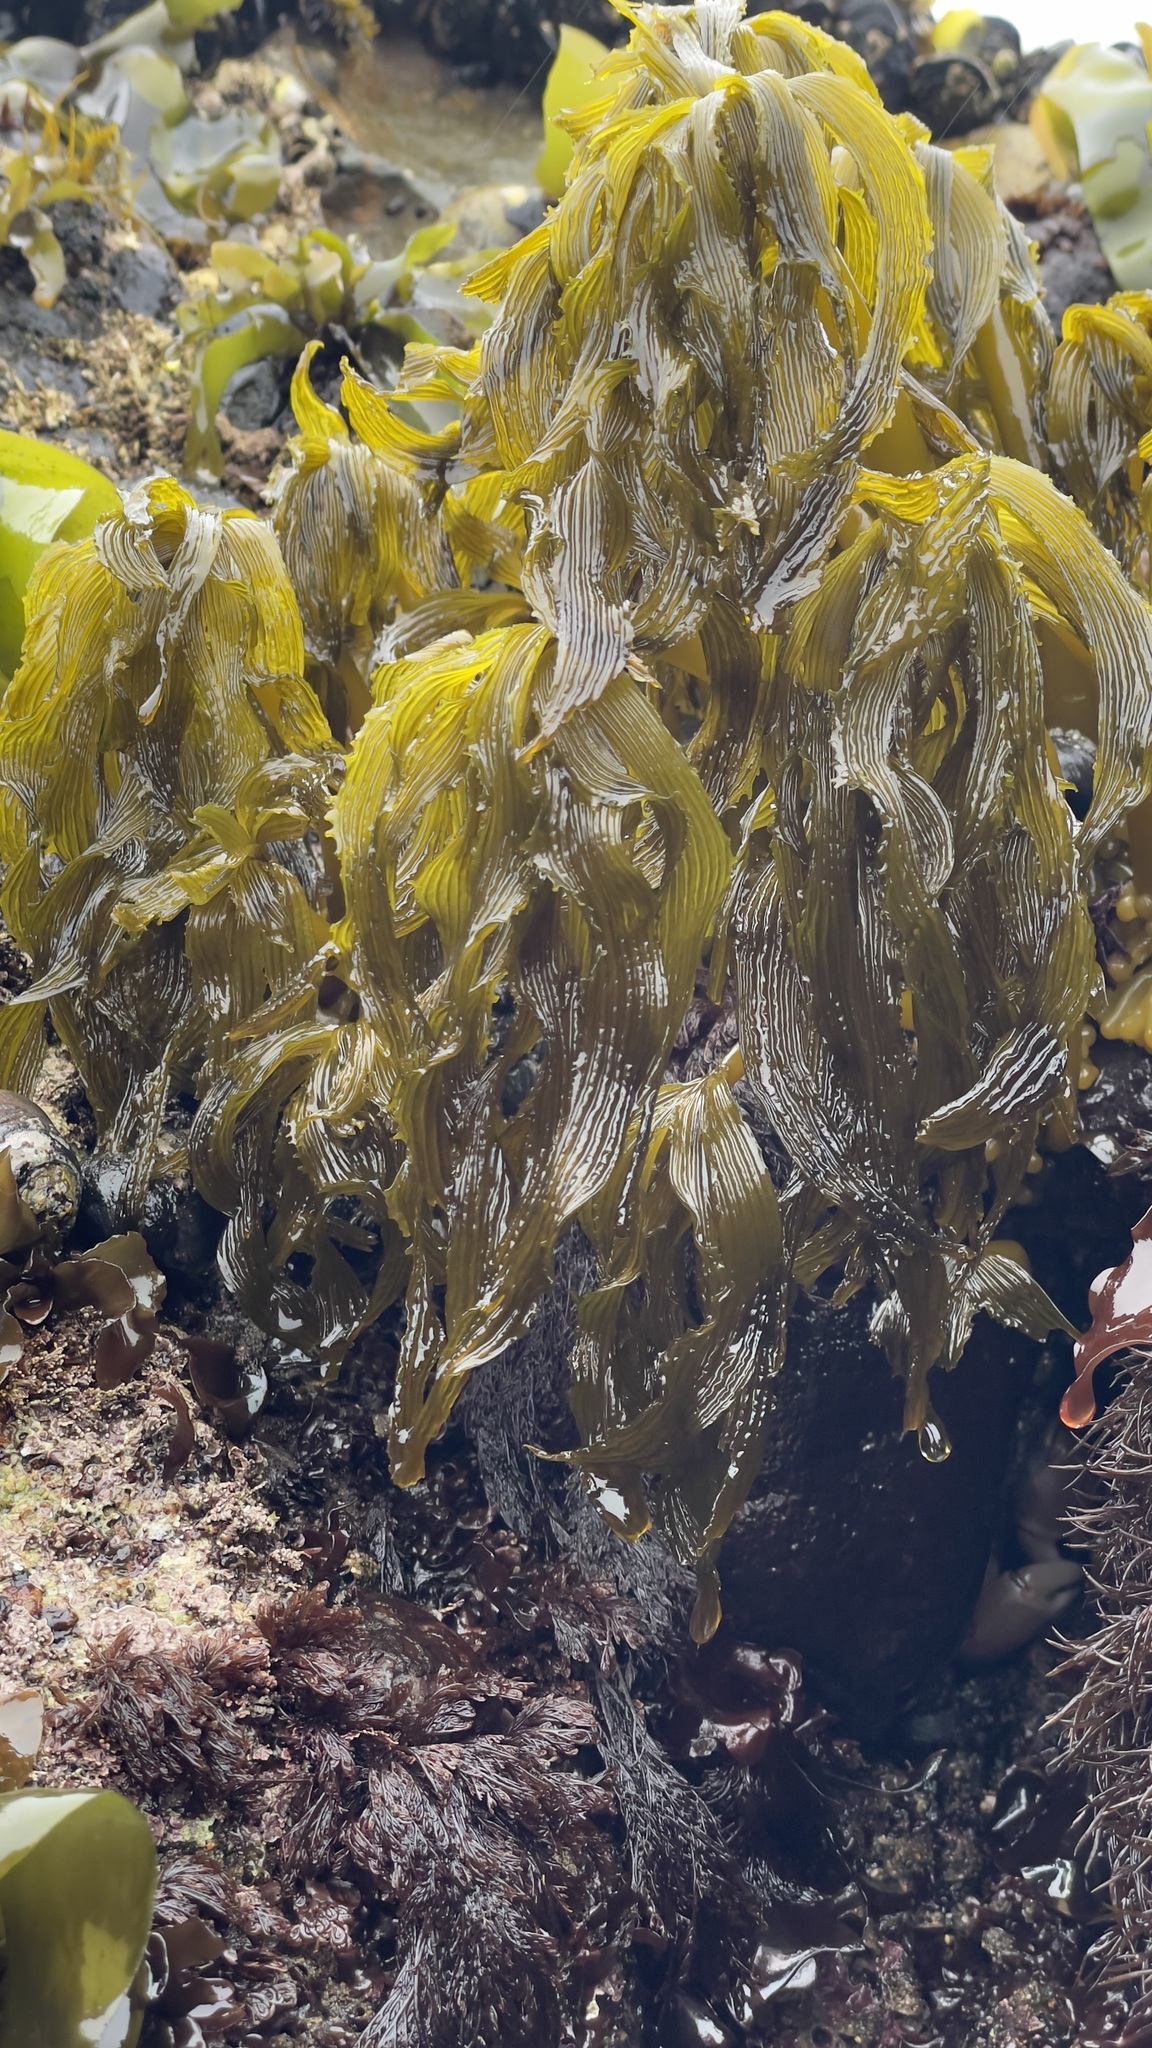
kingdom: Chromista
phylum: Ochrophyta
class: Phaeophyceae
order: Laminariales
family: Laminariaceae
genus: Postelsia
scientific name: Postelsia palmiformis
